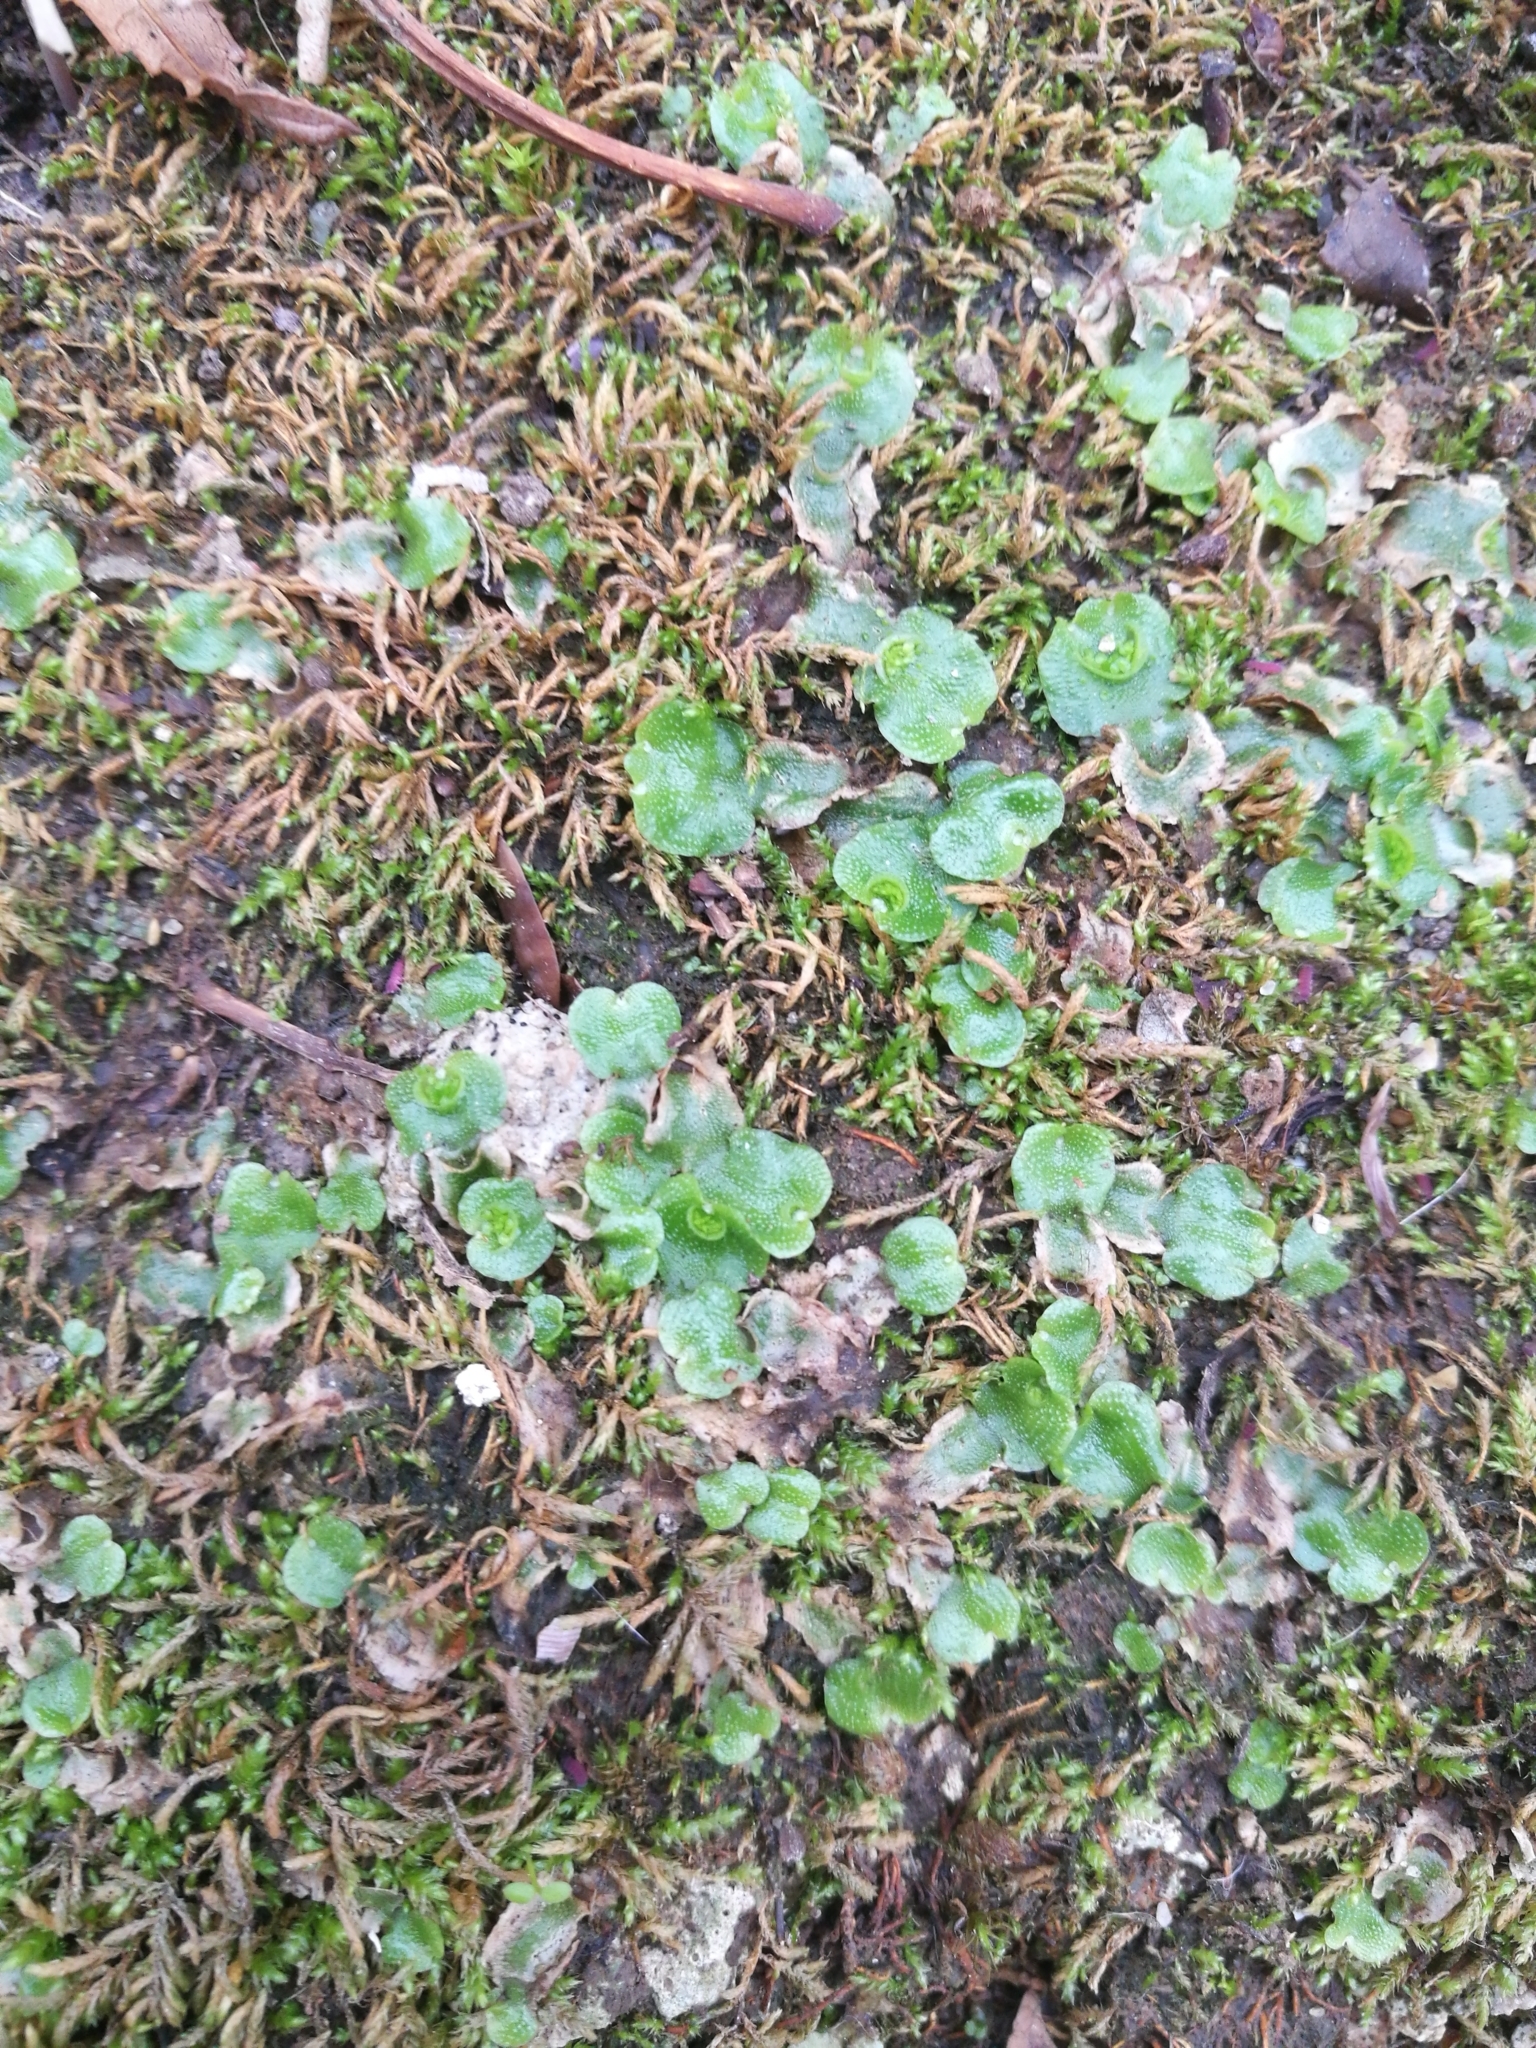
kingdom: Plantae
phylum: Marchantiophyta
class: Marchantiopsida
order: Lunulariales
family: Lunulariaceae
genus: Lunularia
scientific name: Lunularia cruciata
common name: Crescent-cup liverwort
